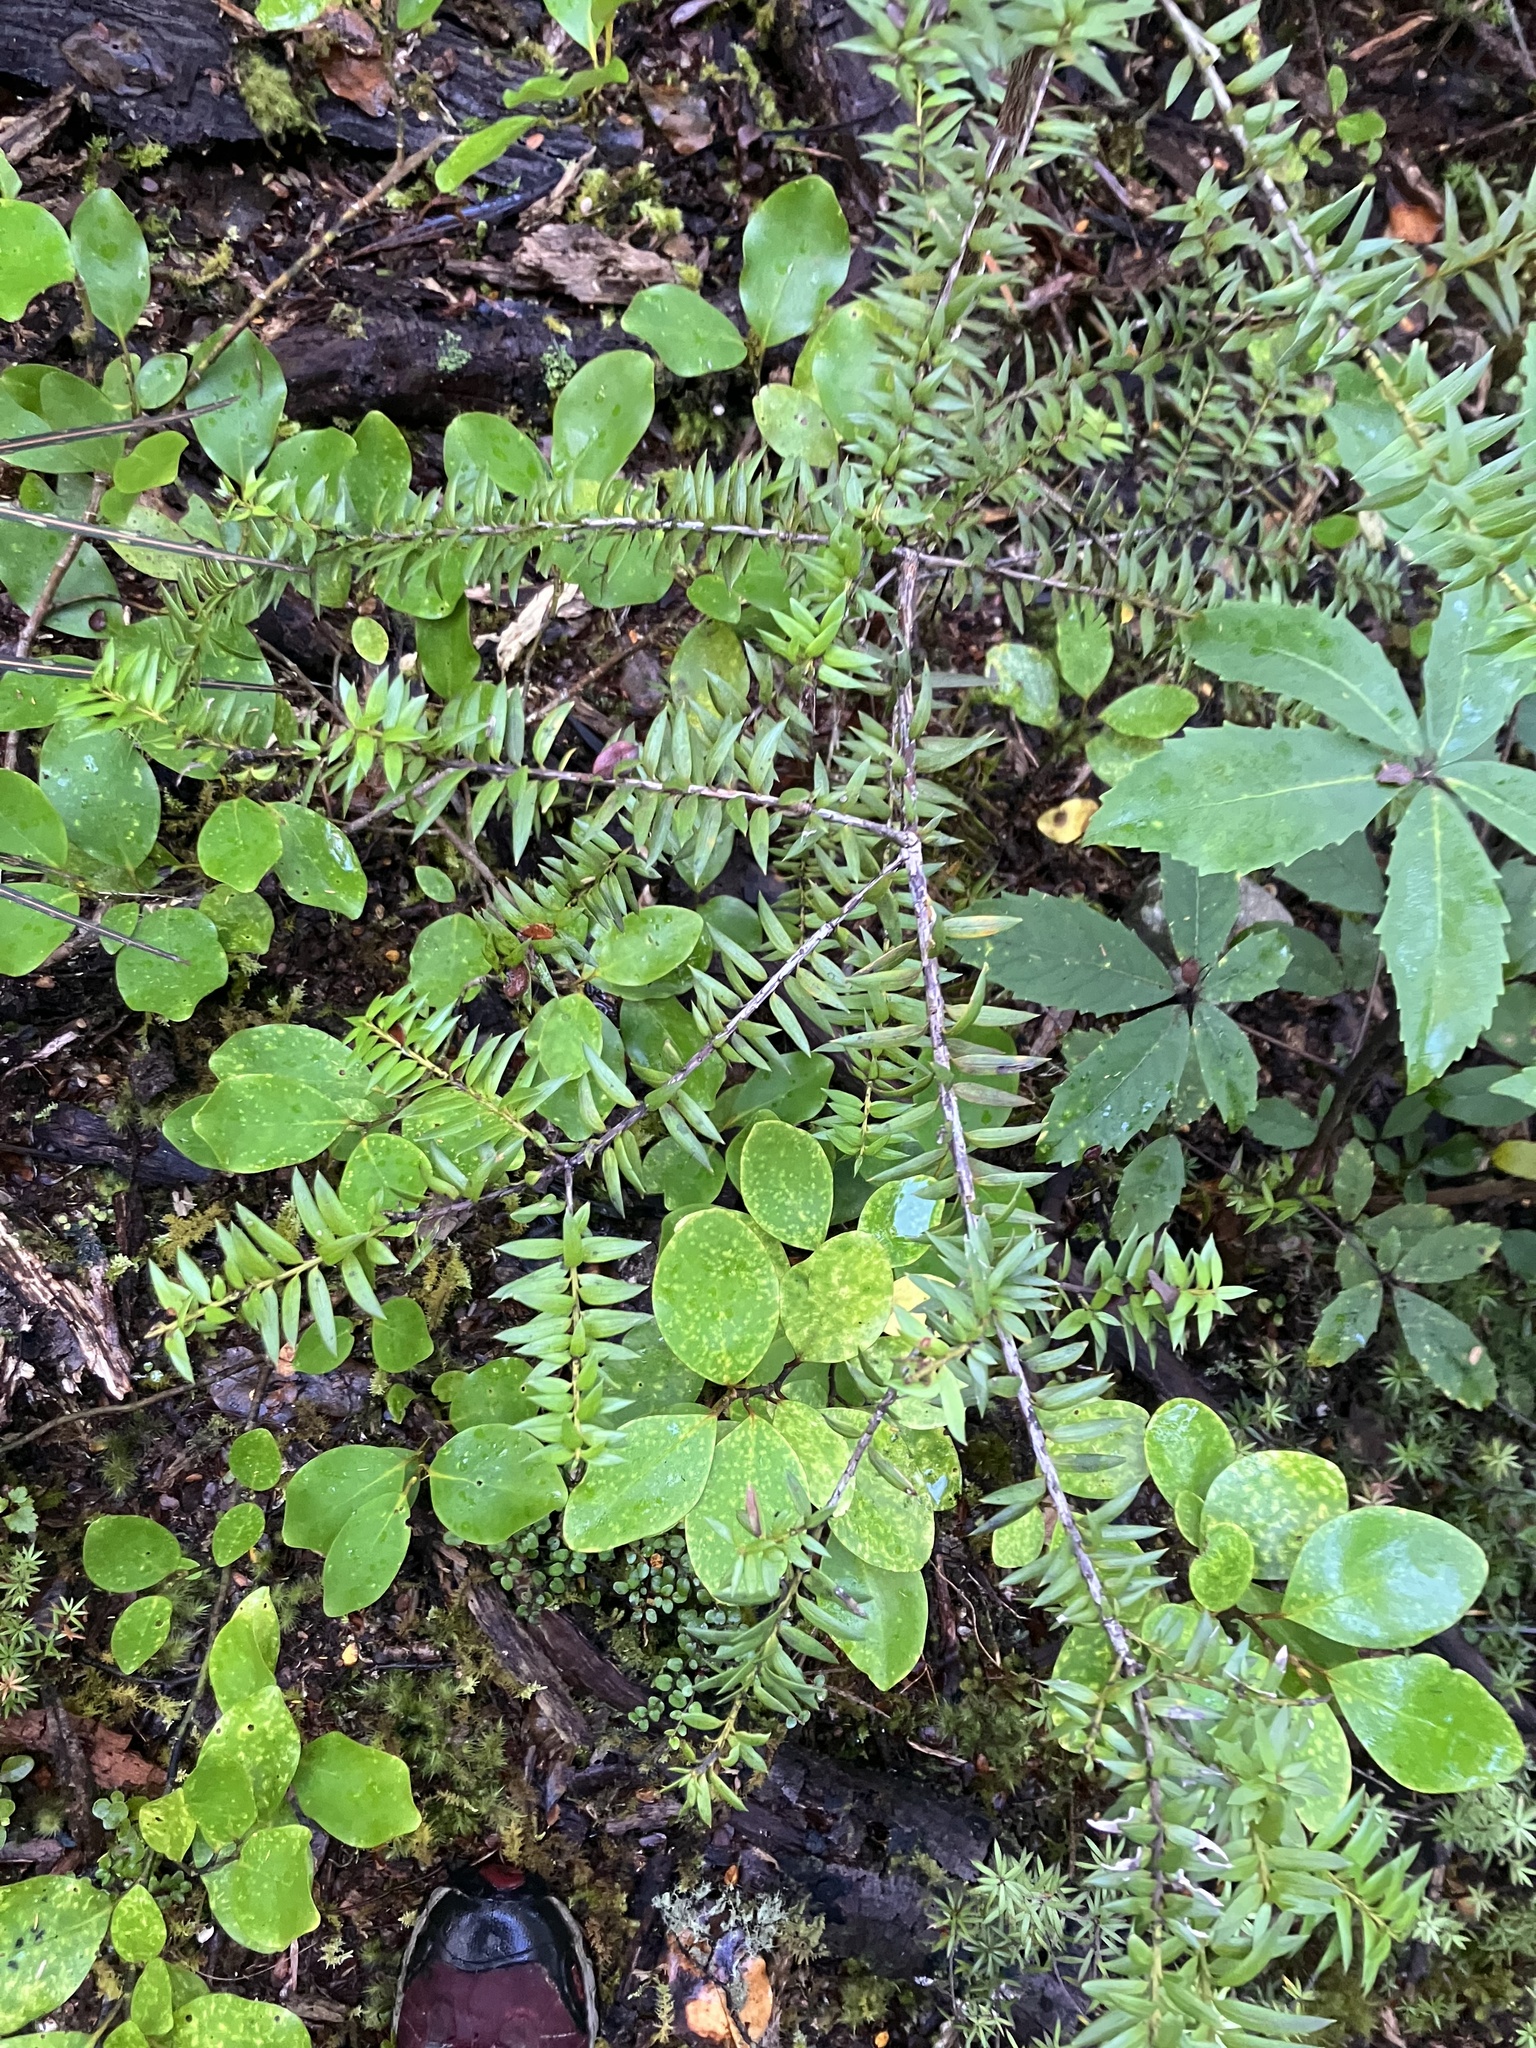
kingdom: Plantae
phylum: Tracheophyta
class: Pinopsida
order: Pinales
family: Podocarpaceae
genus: Podocarpus
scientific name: Podocarpus laetus
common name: Hall's totara
